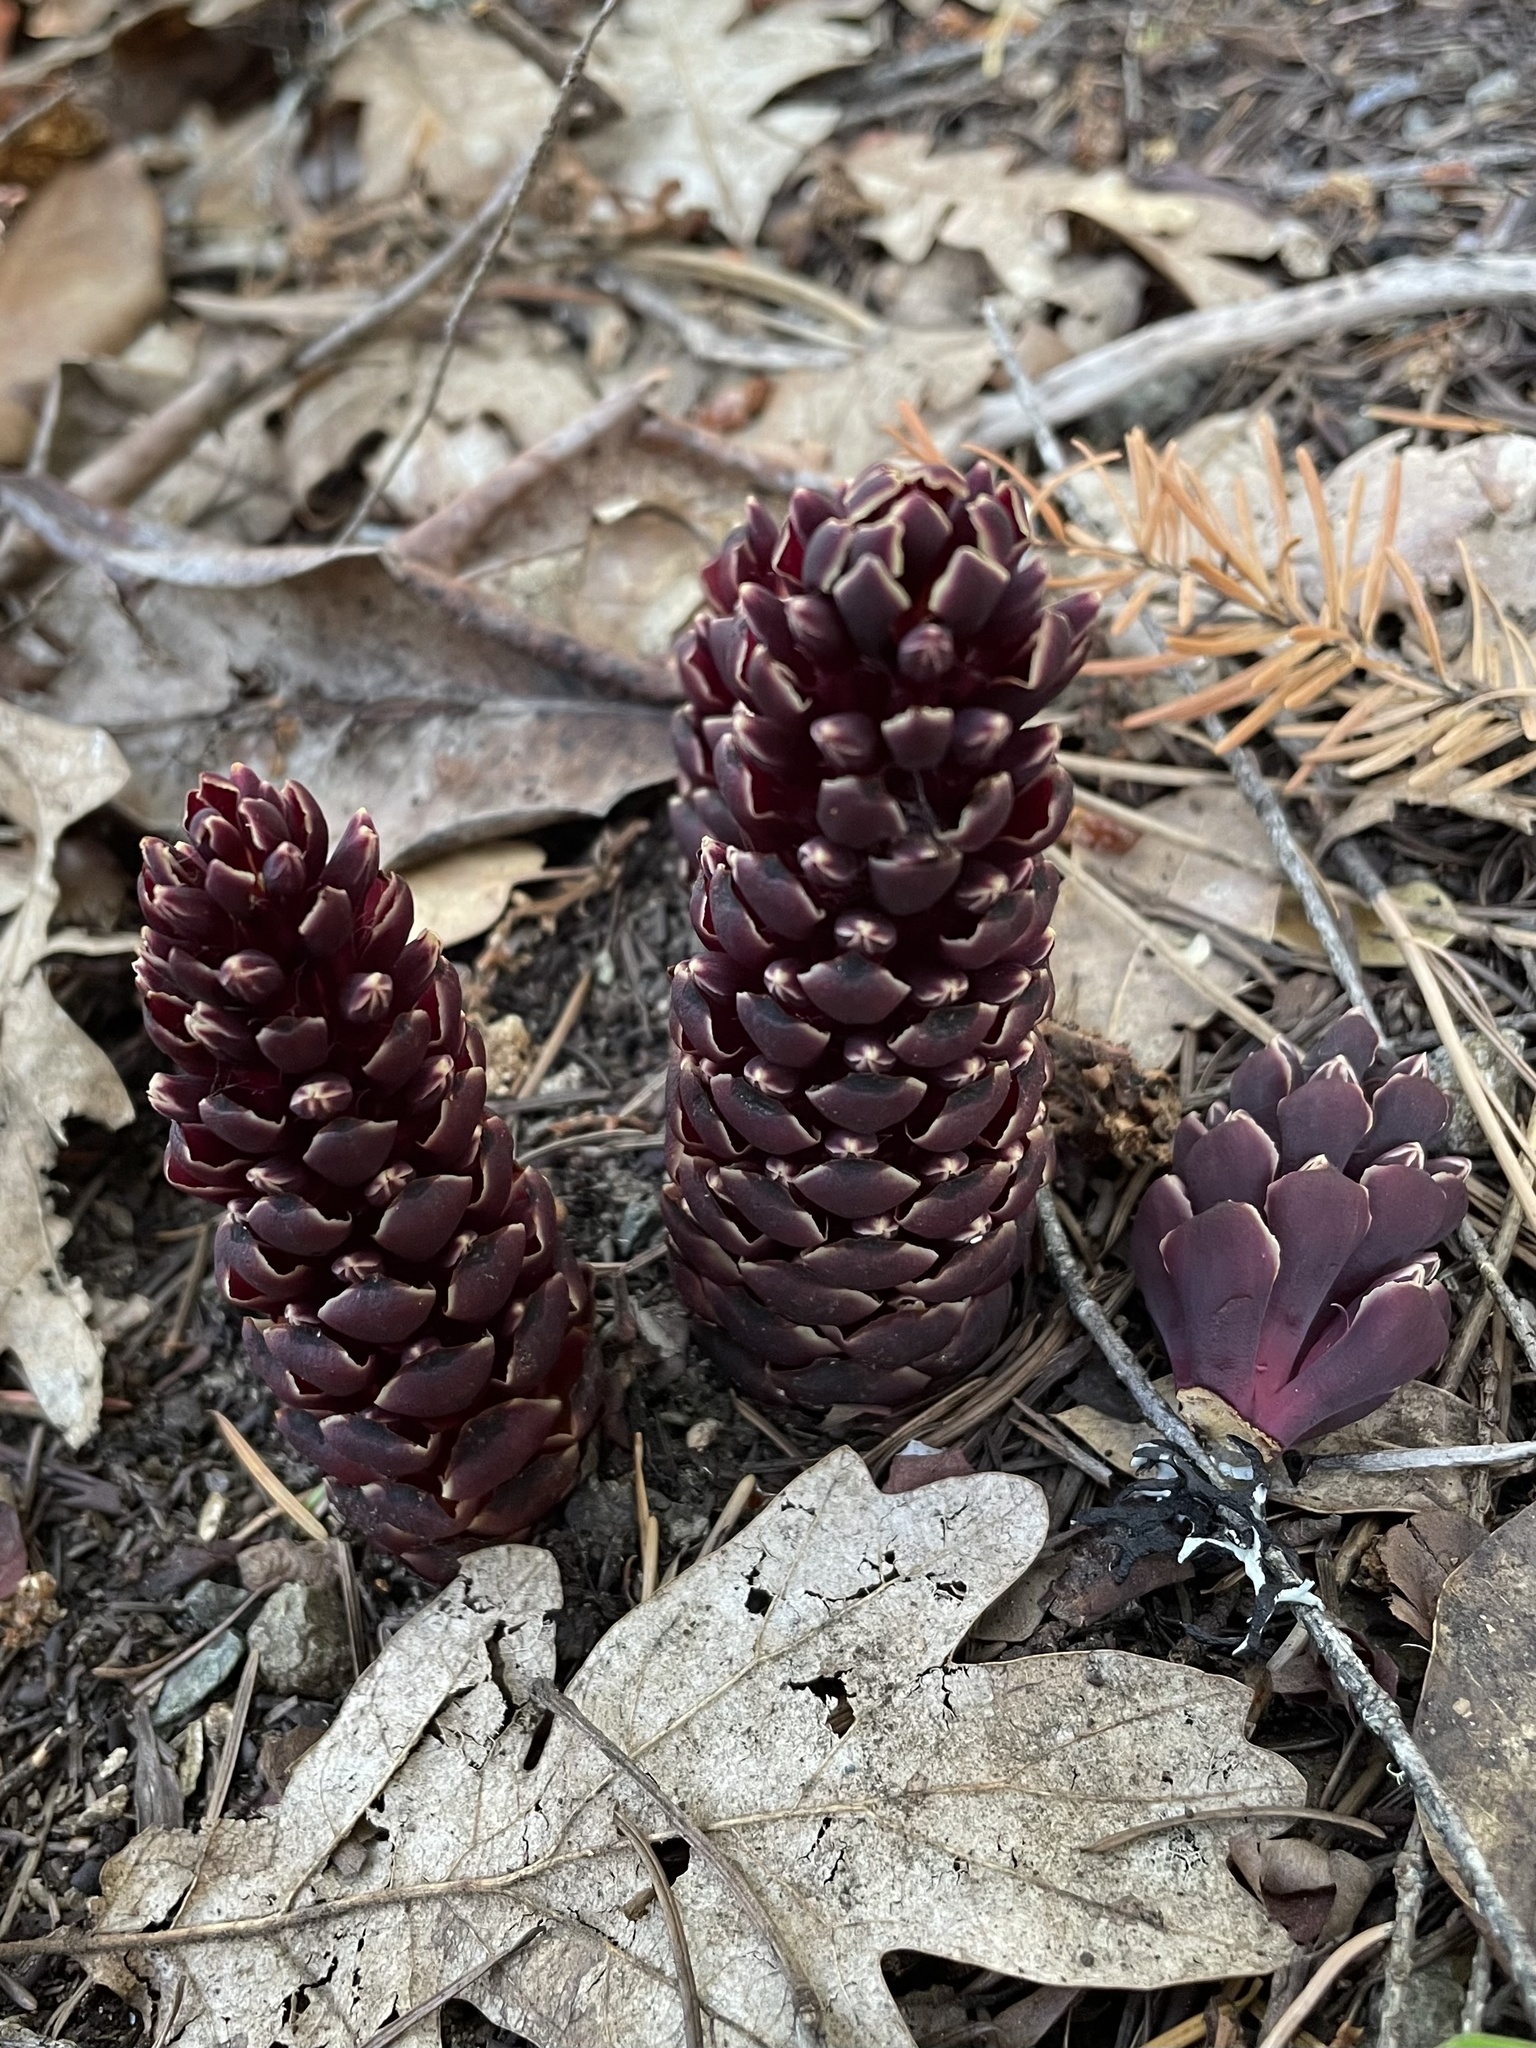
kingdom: Plantae
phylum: Tracheophyta
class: Magnoliopsida
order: Lamiales
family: Orobanchaceae
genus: Kopsiopsis
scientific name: Kopsiopsis strobilacea
